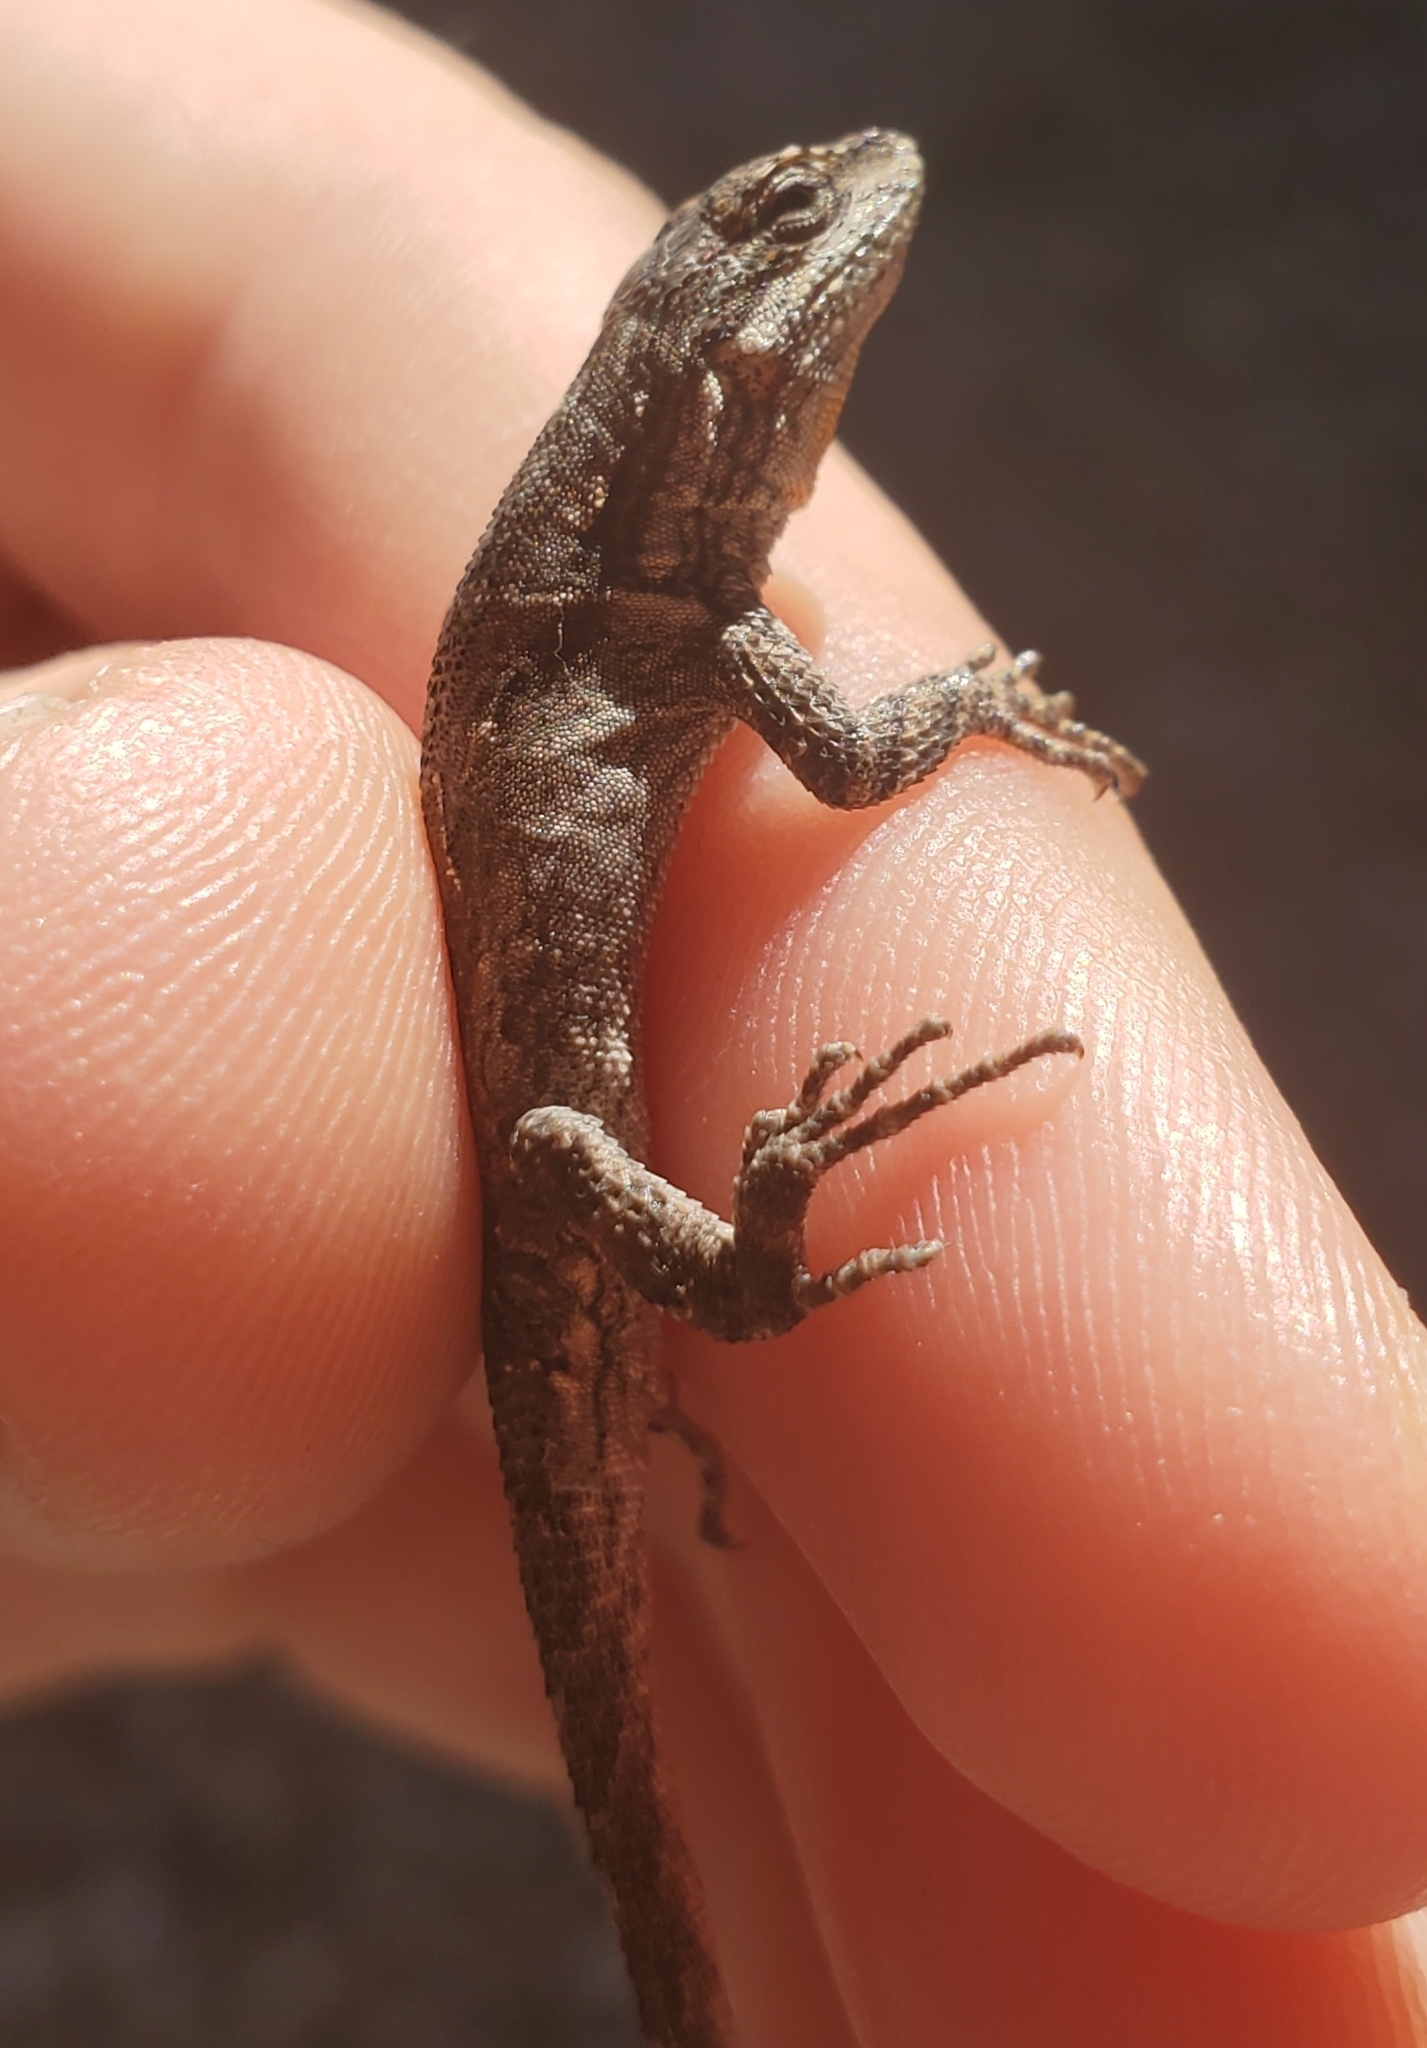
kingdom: Animalia
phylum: Chordata
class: Squamata
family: Phrynosomatidae
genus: Urosaurus
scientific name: Urosaurus ornatus
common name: Ornate tree lizard
